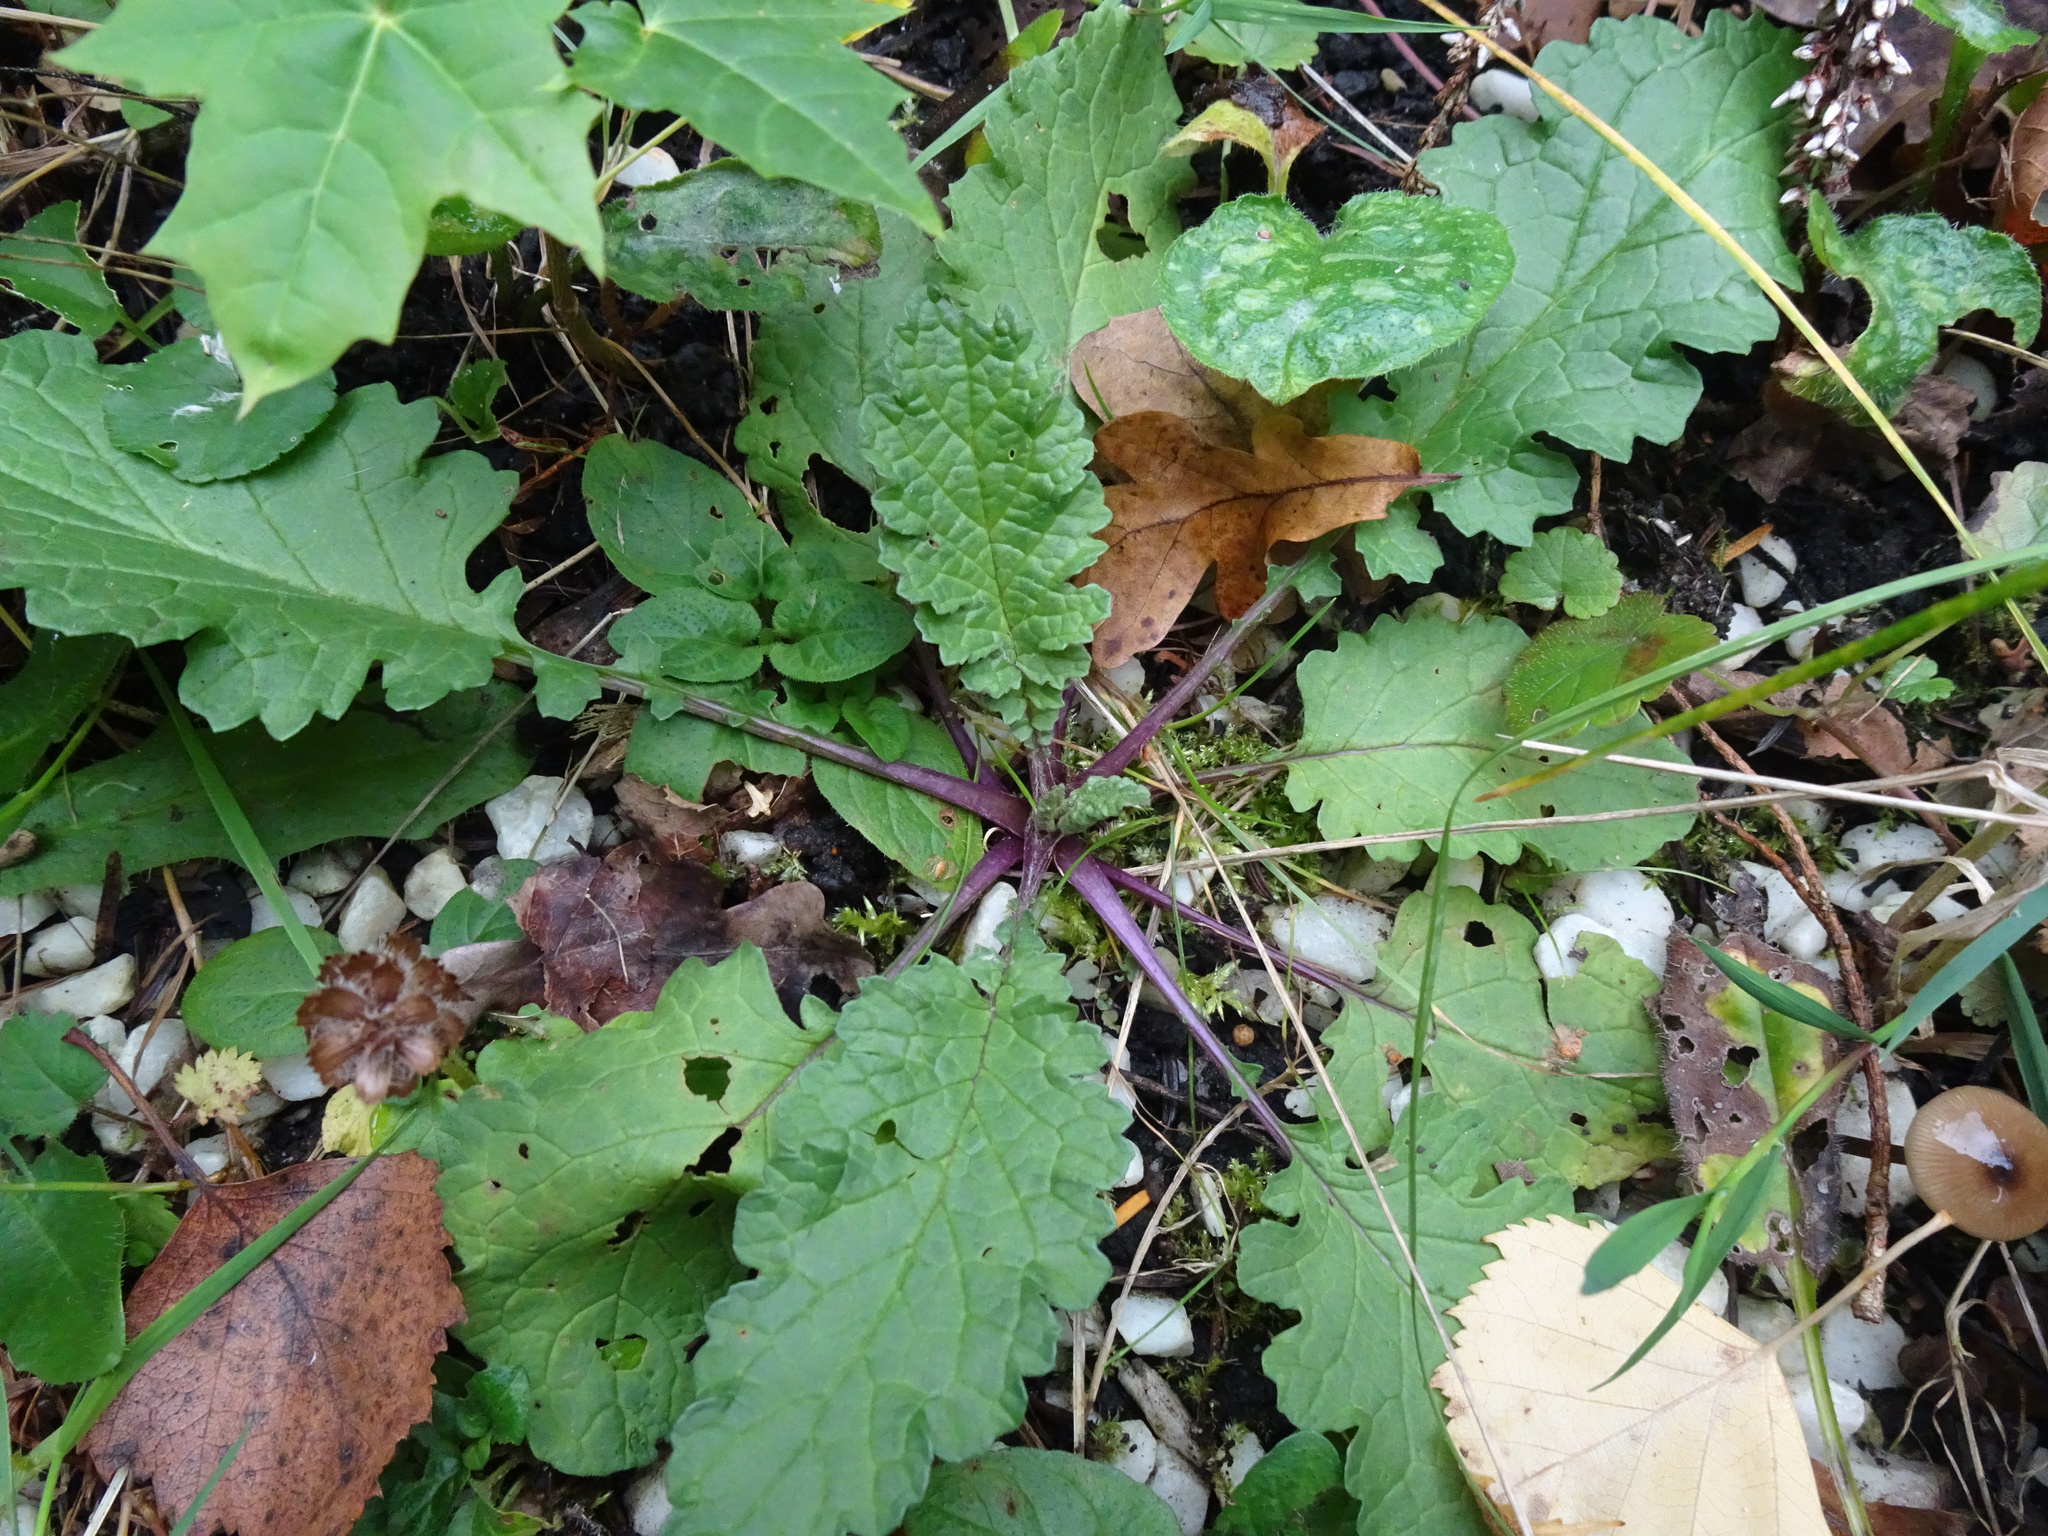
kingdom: Plantae
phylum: Tracheophyta
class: Magnoliopsida
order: Asterales
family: Asteraceae
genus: Jacobaea
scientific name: Jacobaea vulgaris
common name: Stinking willie
